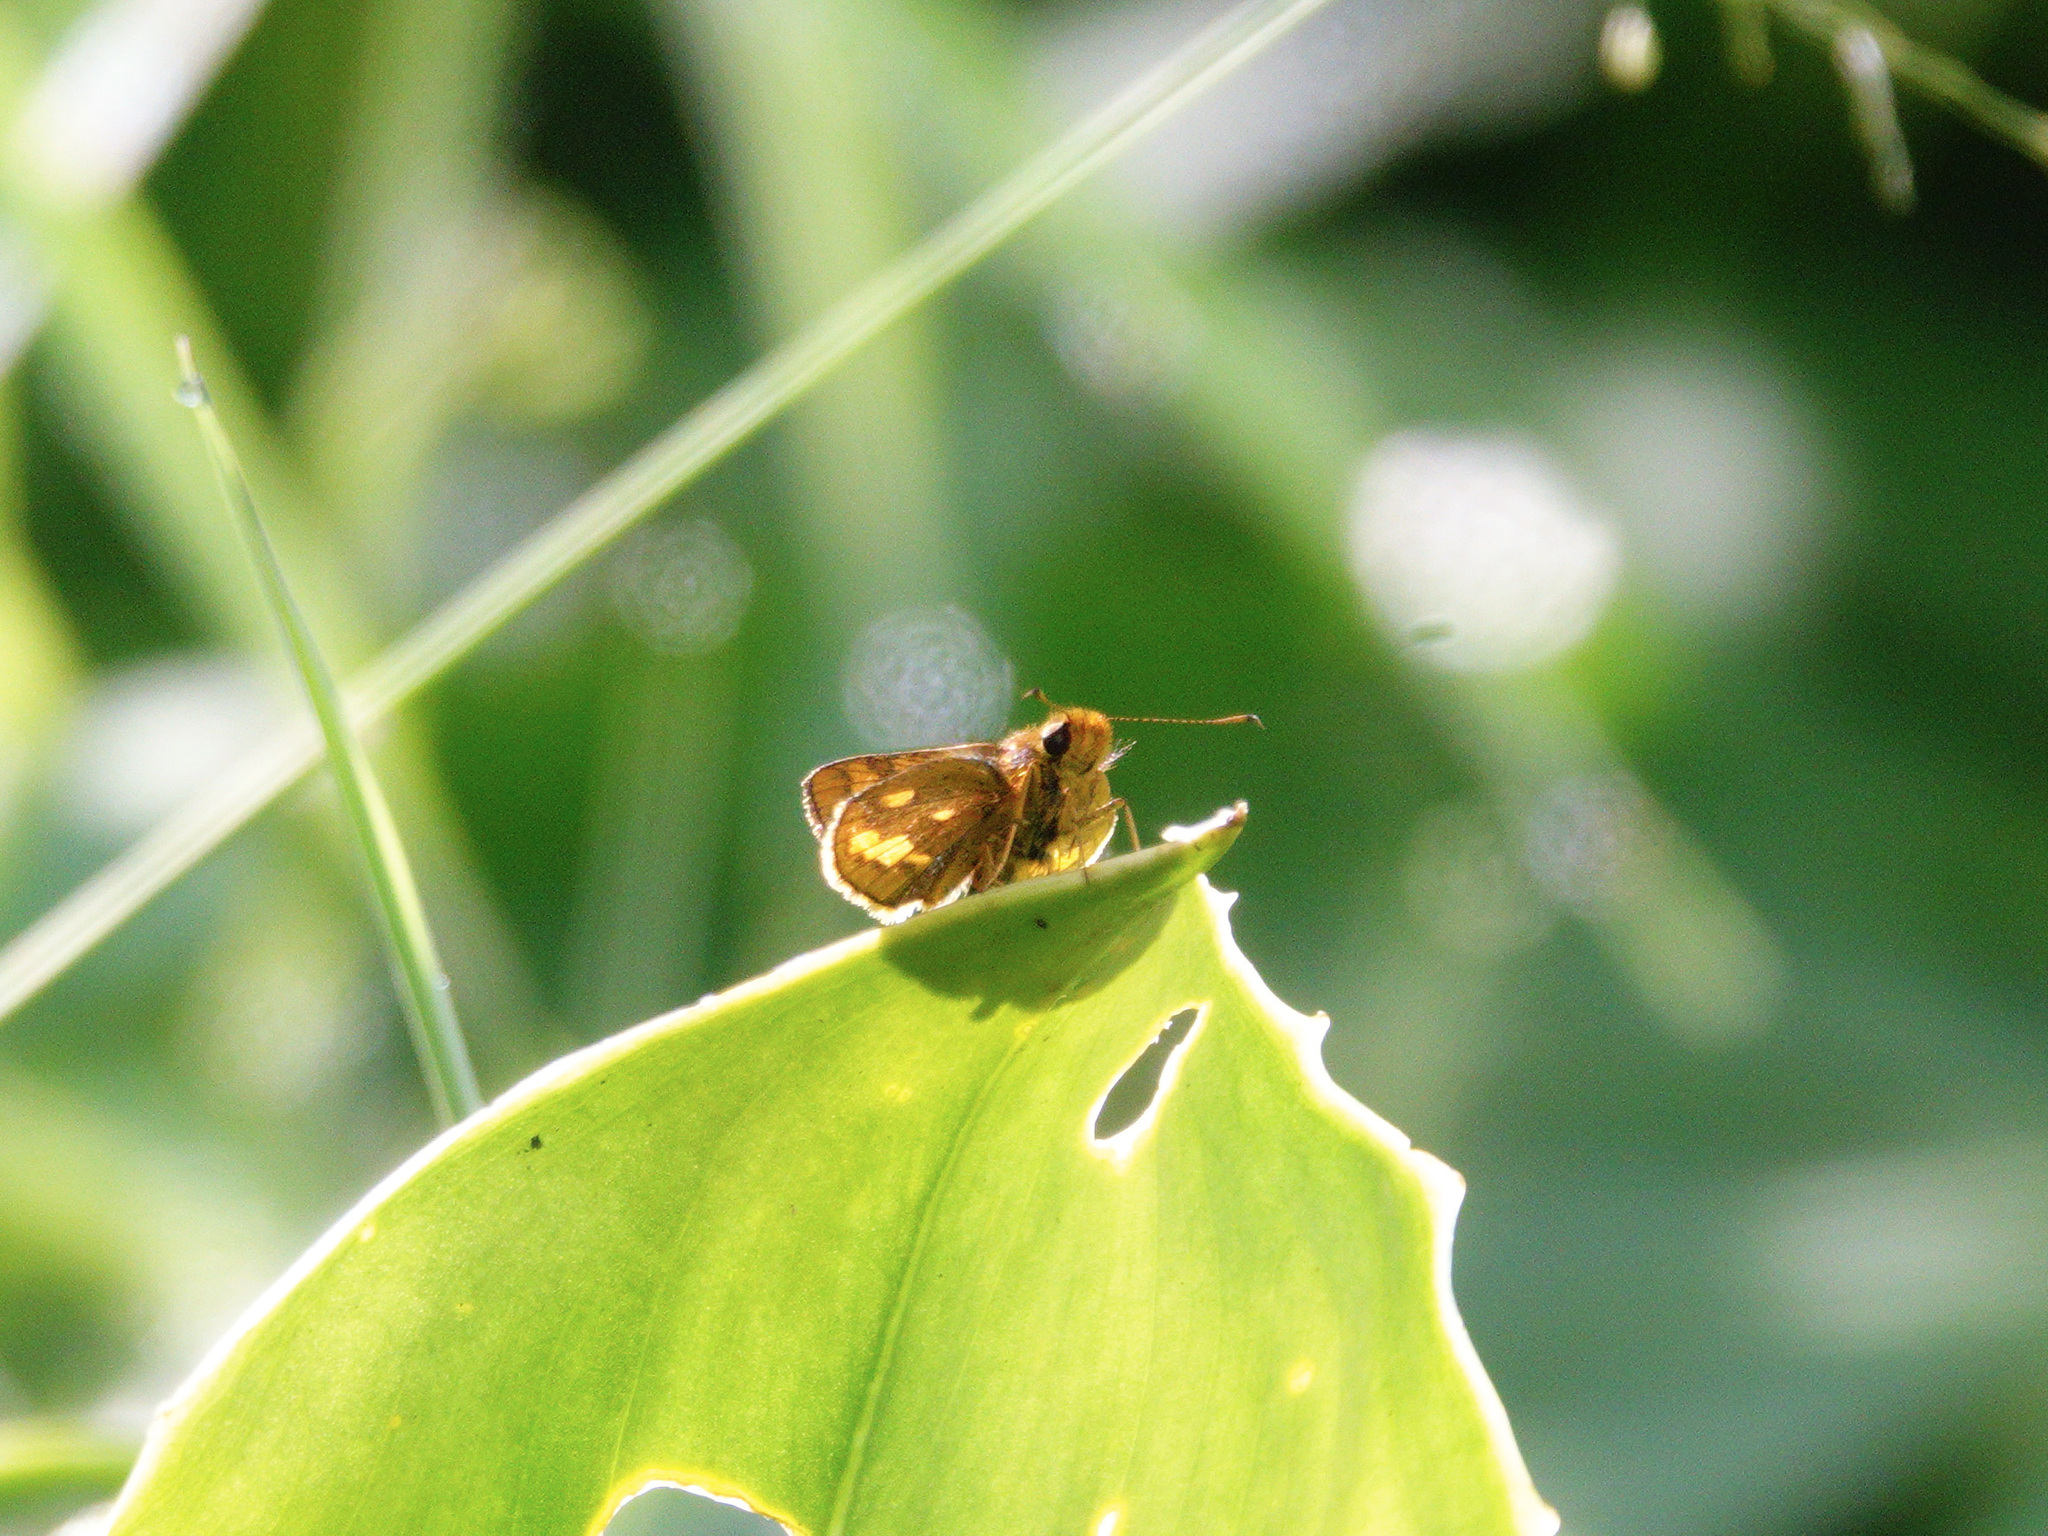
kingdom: Animalia
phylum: Arthropoda
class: Insecta
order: Lepidoptera
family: Hesperiidae
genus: Potanthus
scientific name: Potanthus omaha
